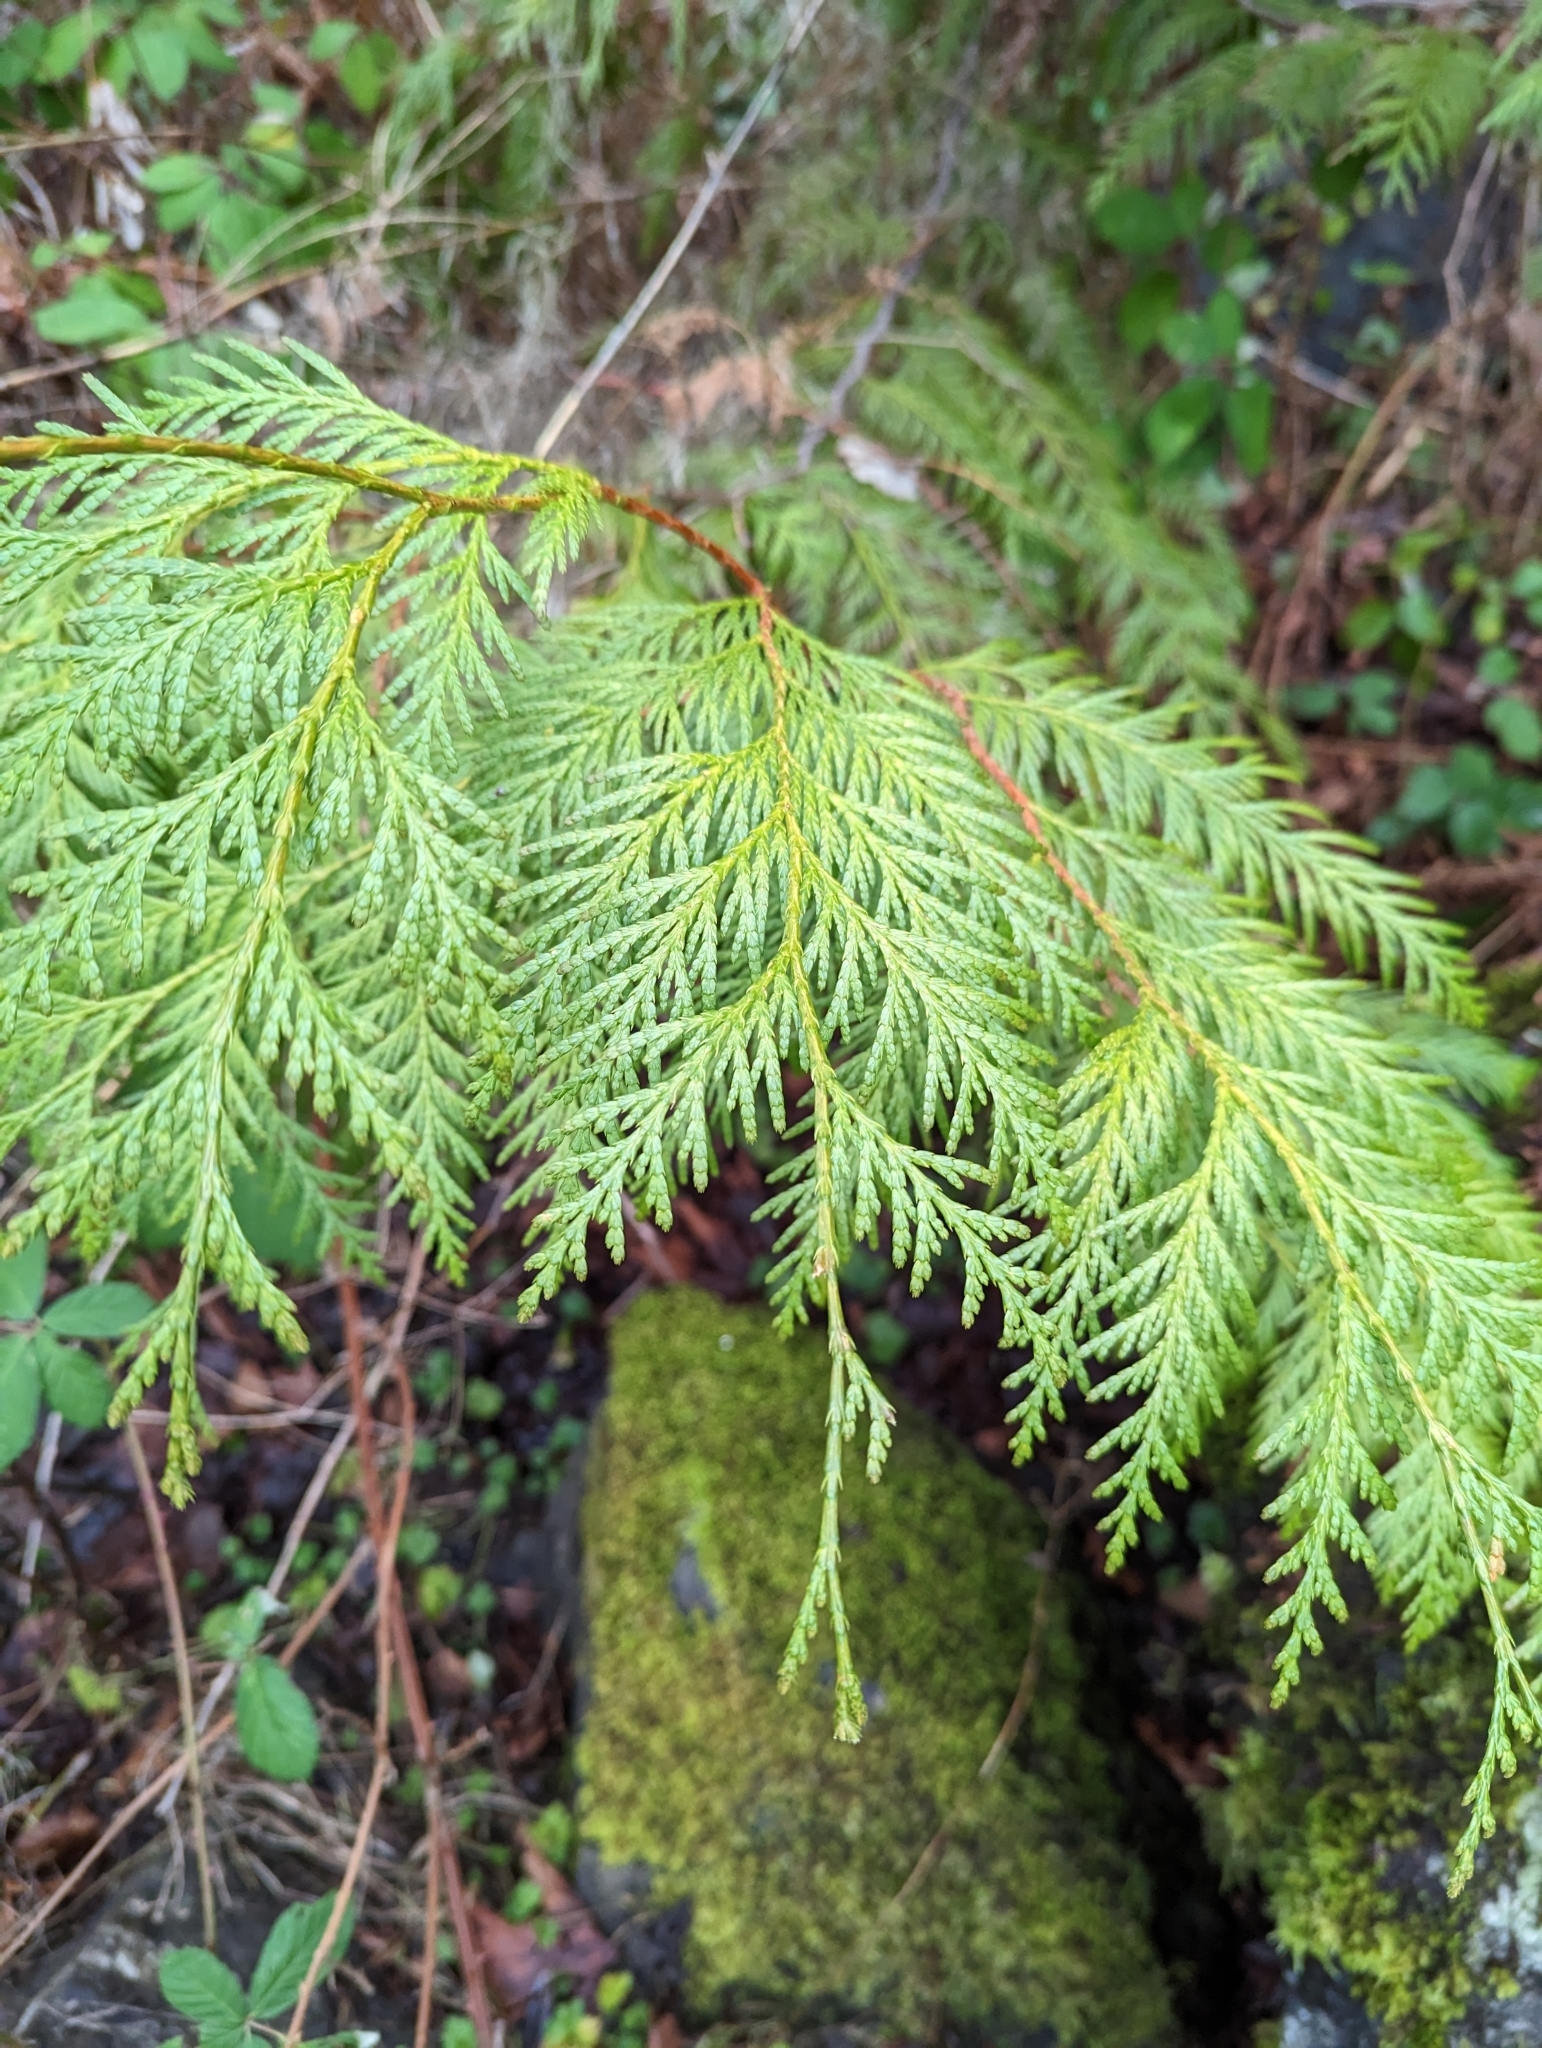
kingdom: Plantae
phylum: Tracheophyta
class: Pinopsida
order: Pinales
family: Cupressaceae
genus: Thuja
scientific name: Thuja plicata
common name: Western red-cedar
